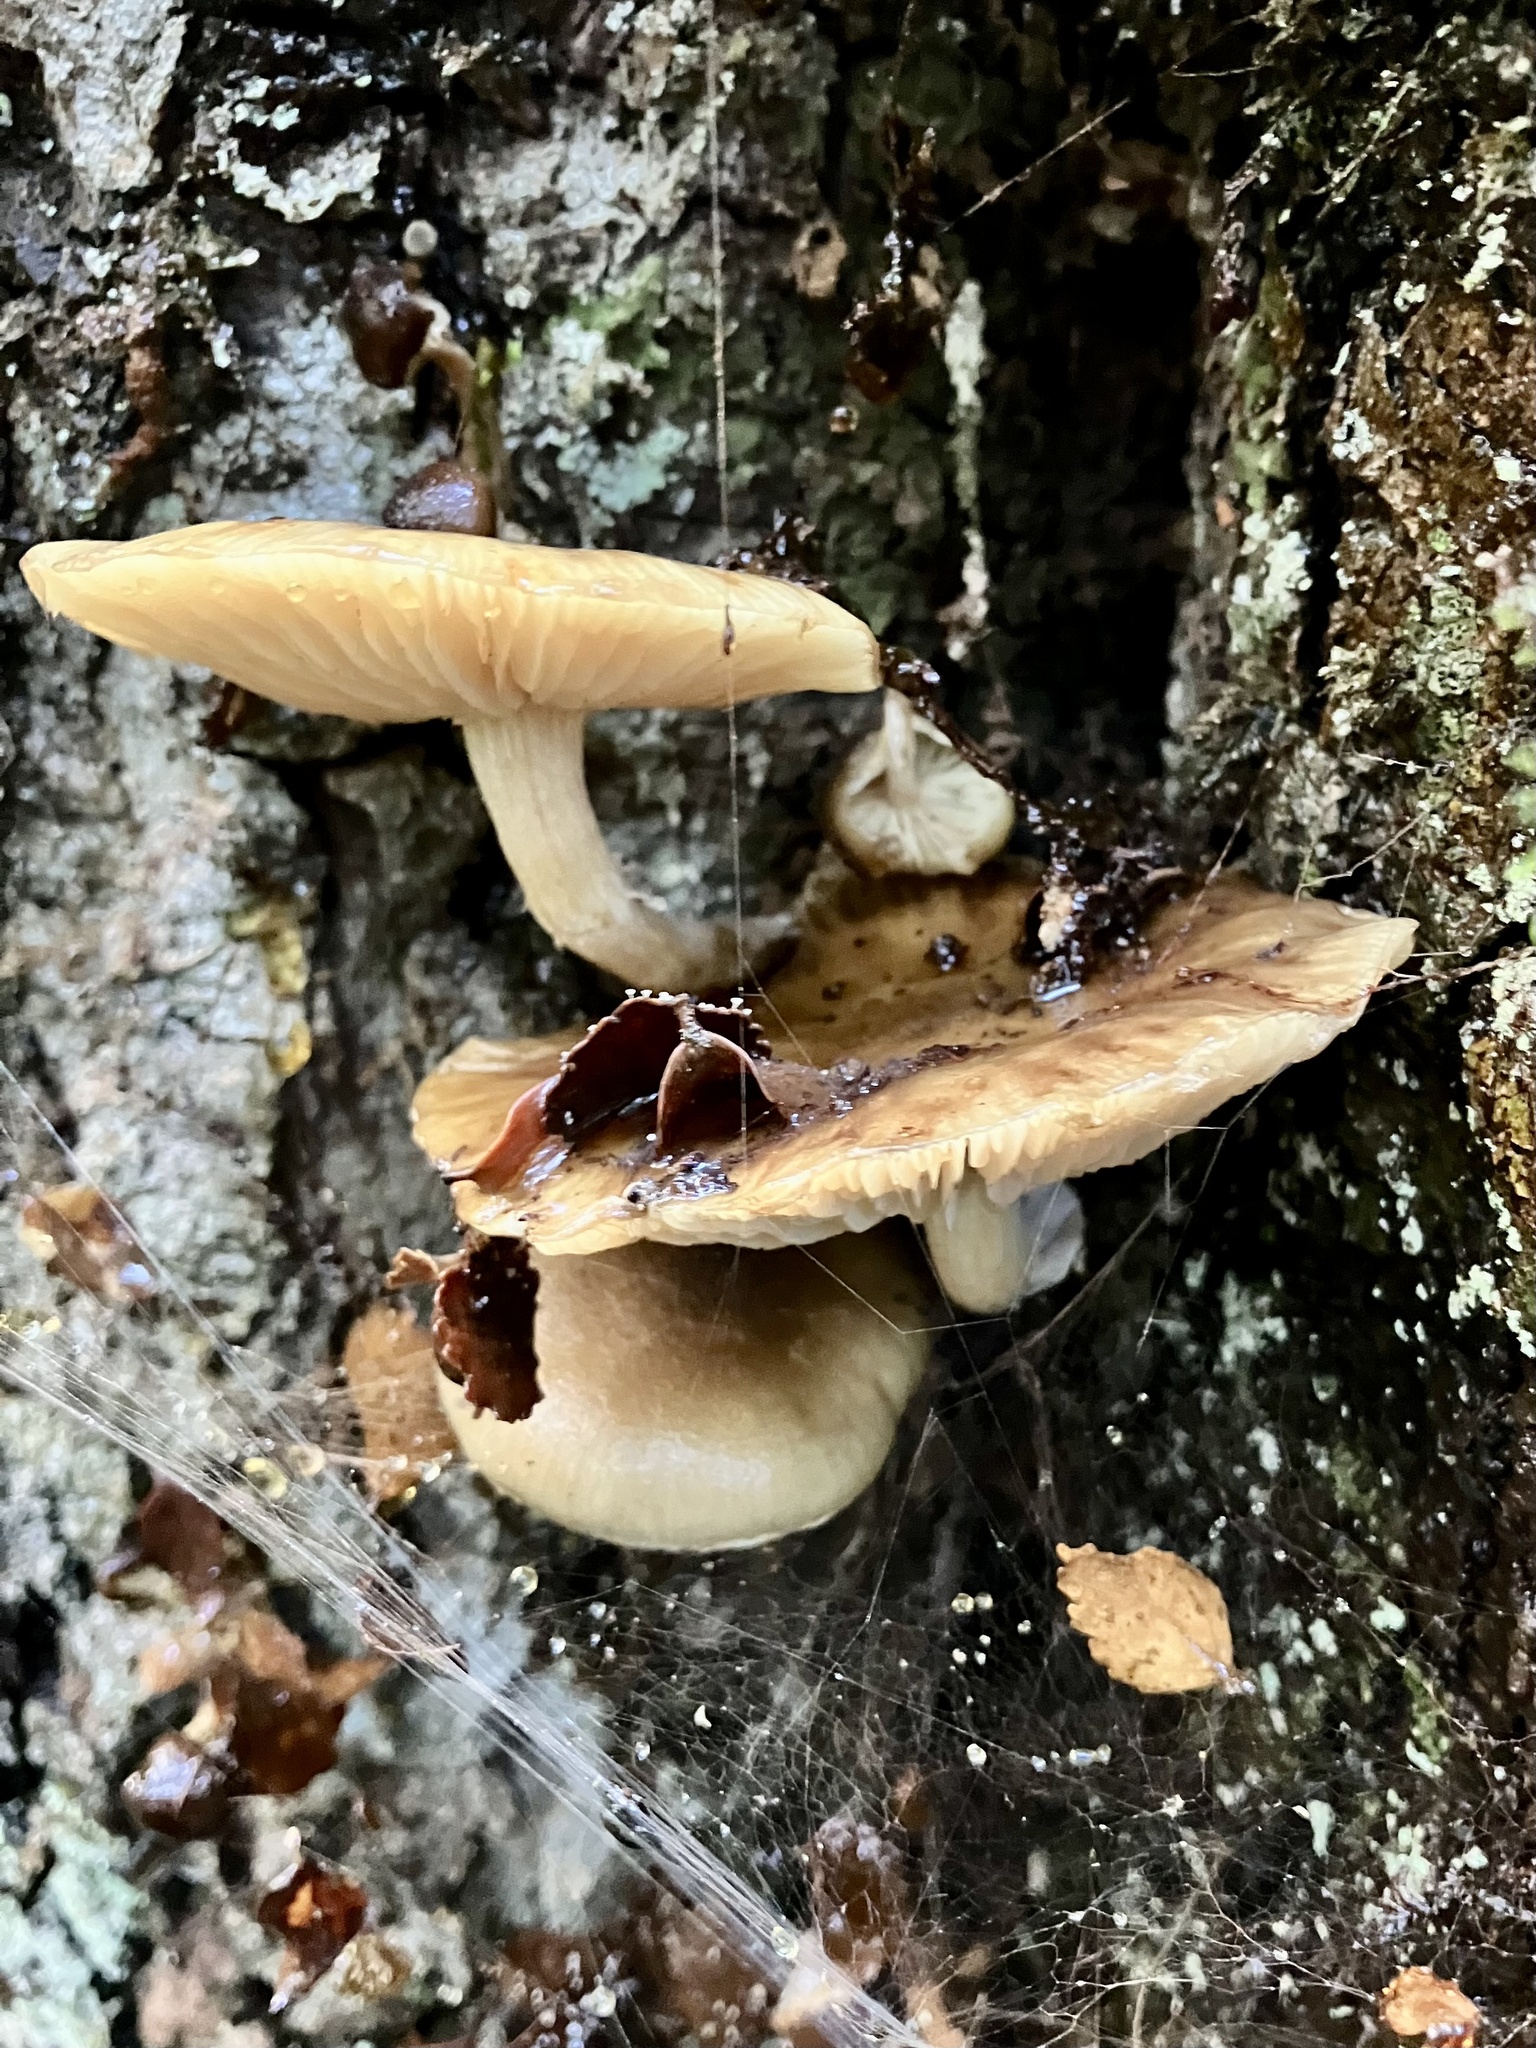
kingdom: Fungi
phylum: Basidiomycota
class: Agaricomycetes
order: Agaricales
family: Physalacriaceae
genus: Armillaria
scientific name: Armillaria novae-zelandiae
